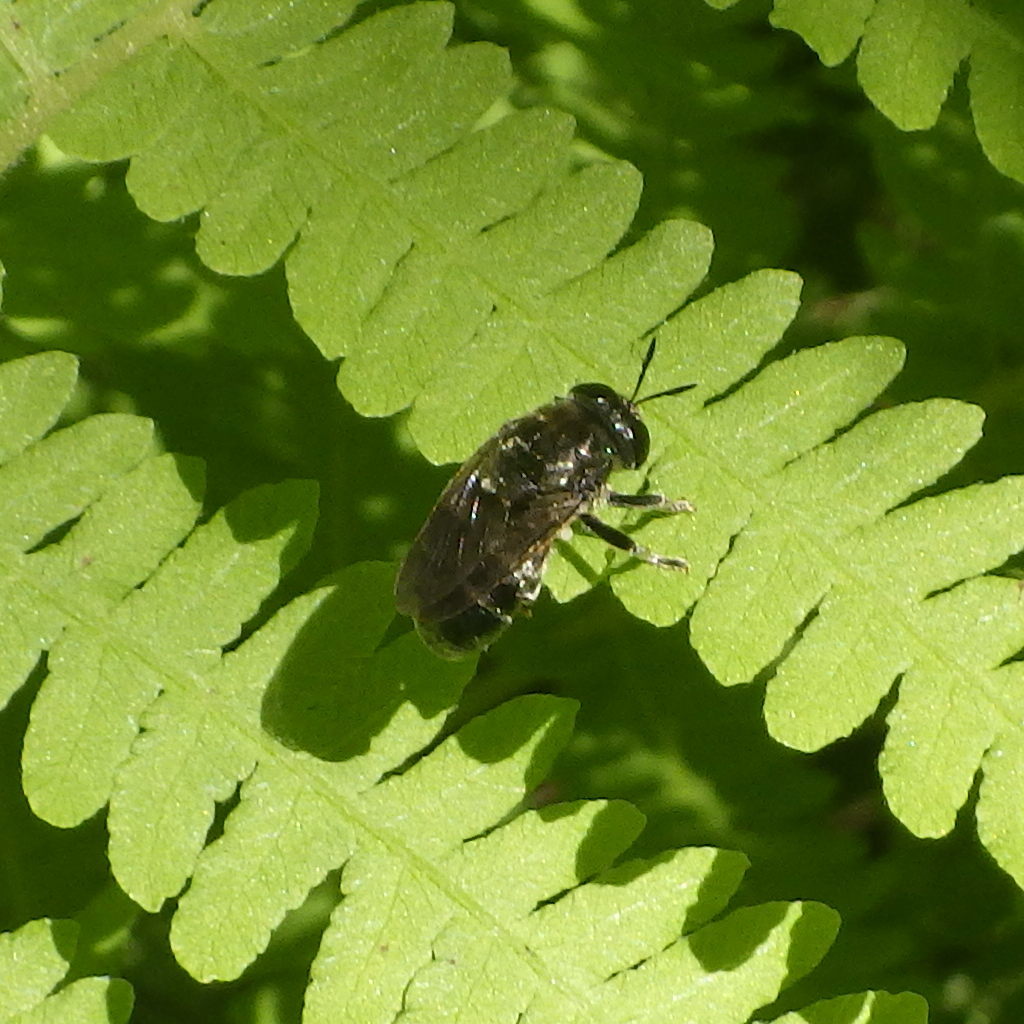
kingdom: Animalia
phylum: Arthropoda
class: Insecta
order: Diptera
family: Syrphidae
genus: Microdon
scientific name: Microdon tristis
